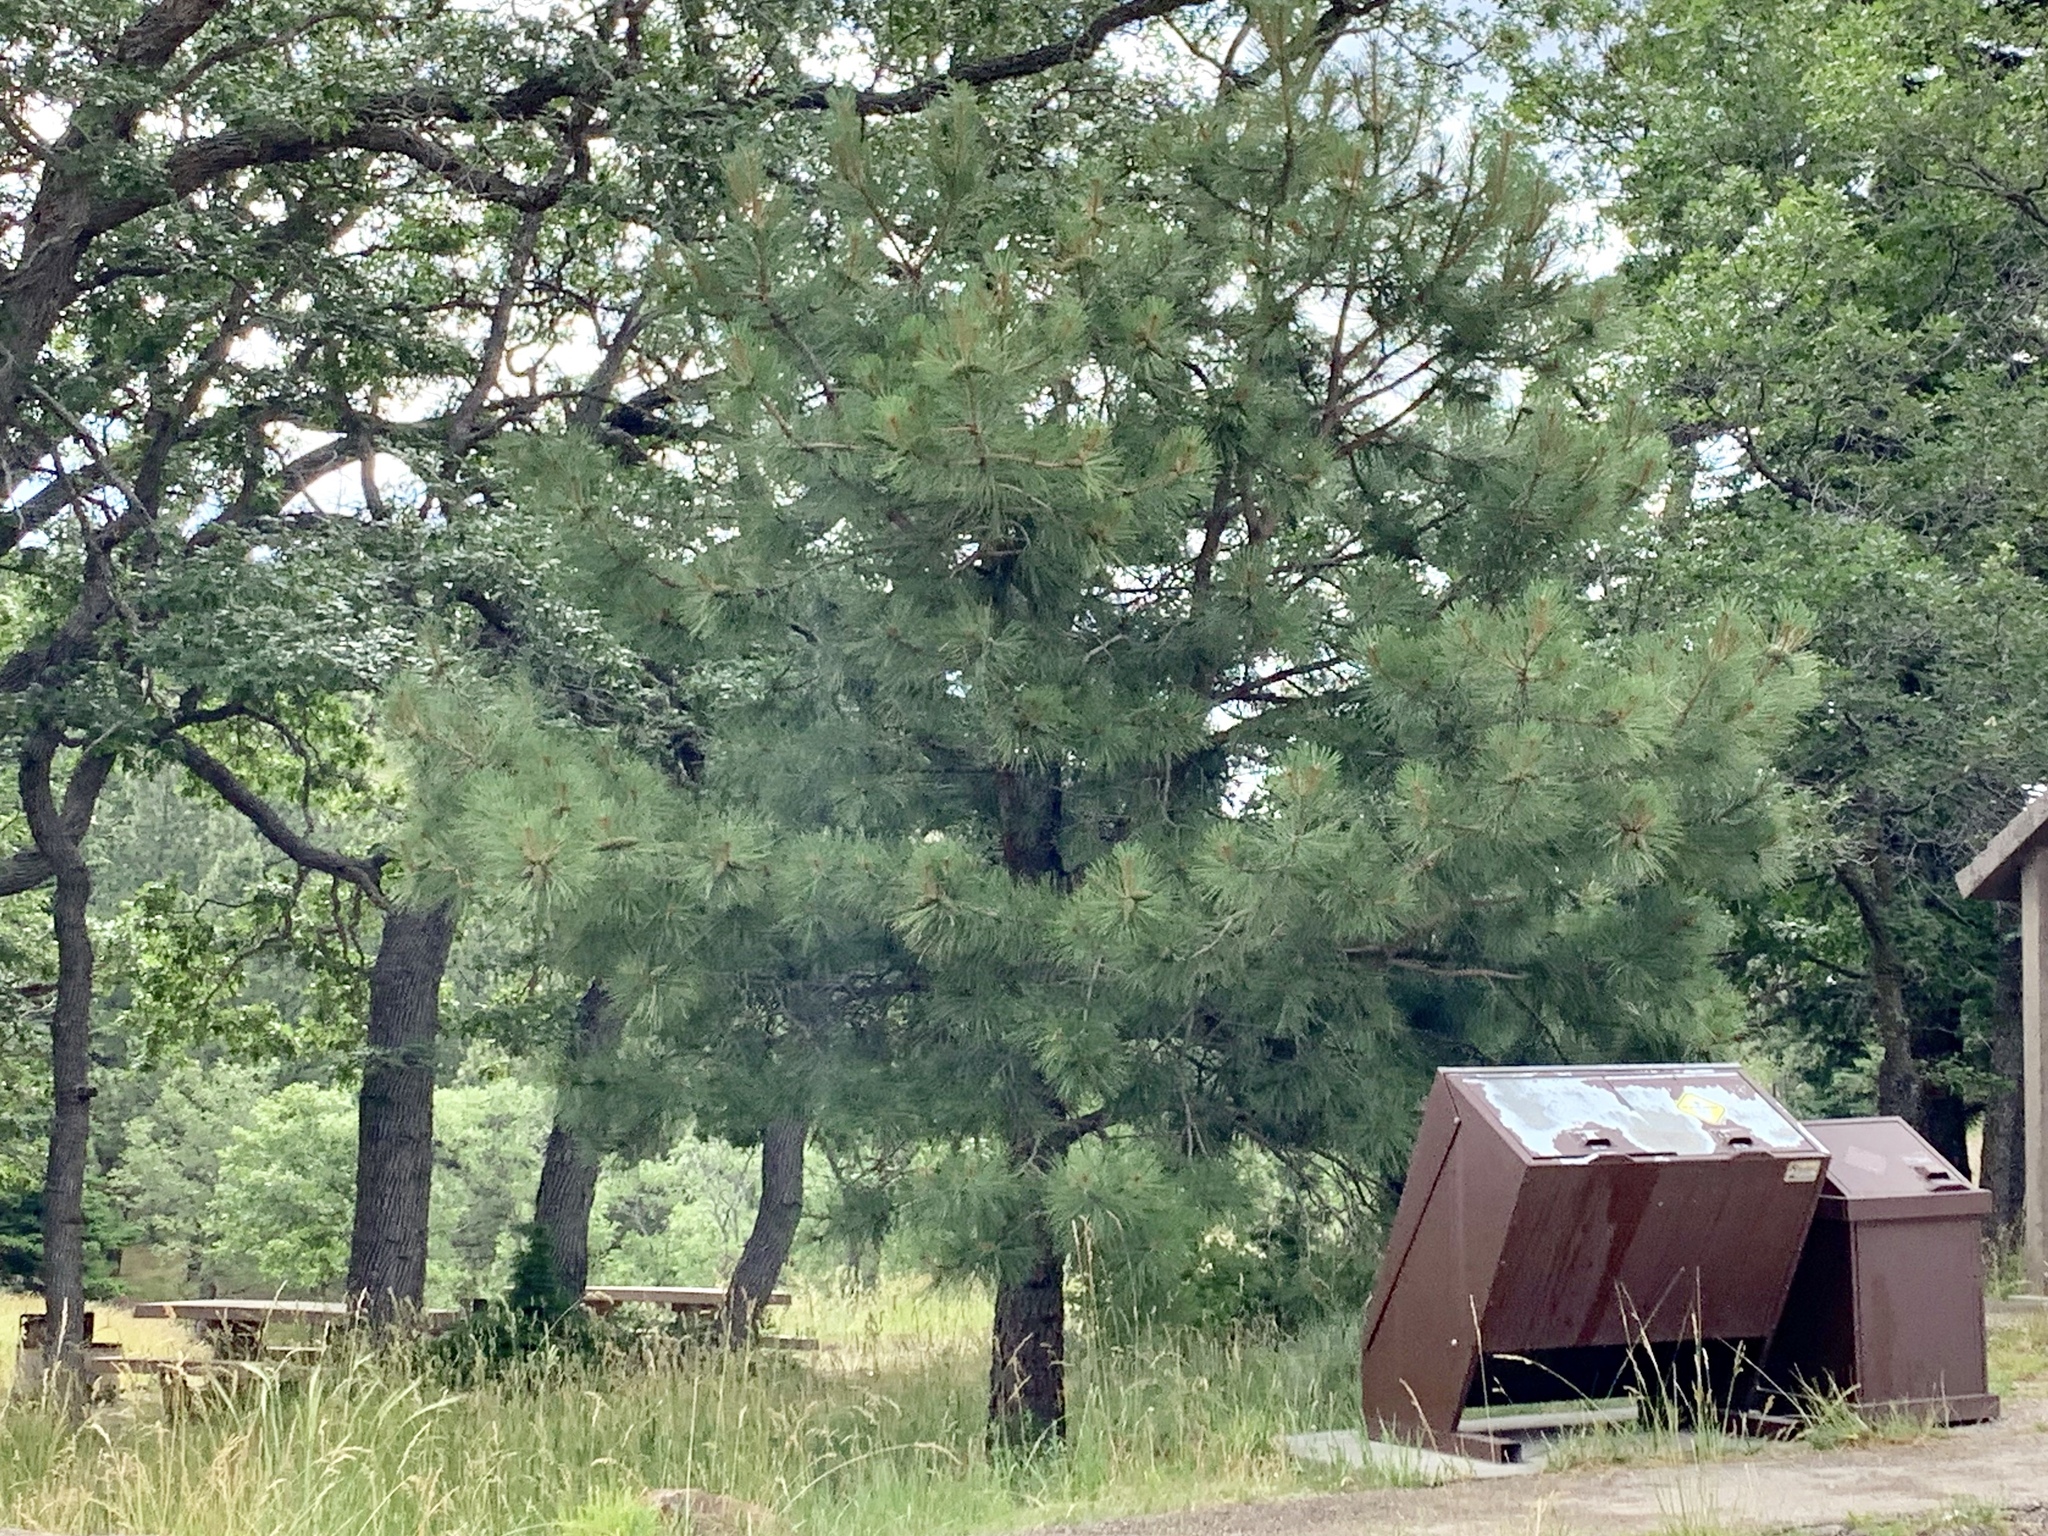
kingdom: Plantae
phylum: Tracheophyta
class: Pinopsida
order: Pinales
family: Pinaceae
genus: Pinus
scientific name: Pinus ponderosa
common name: Western yellow-pine
